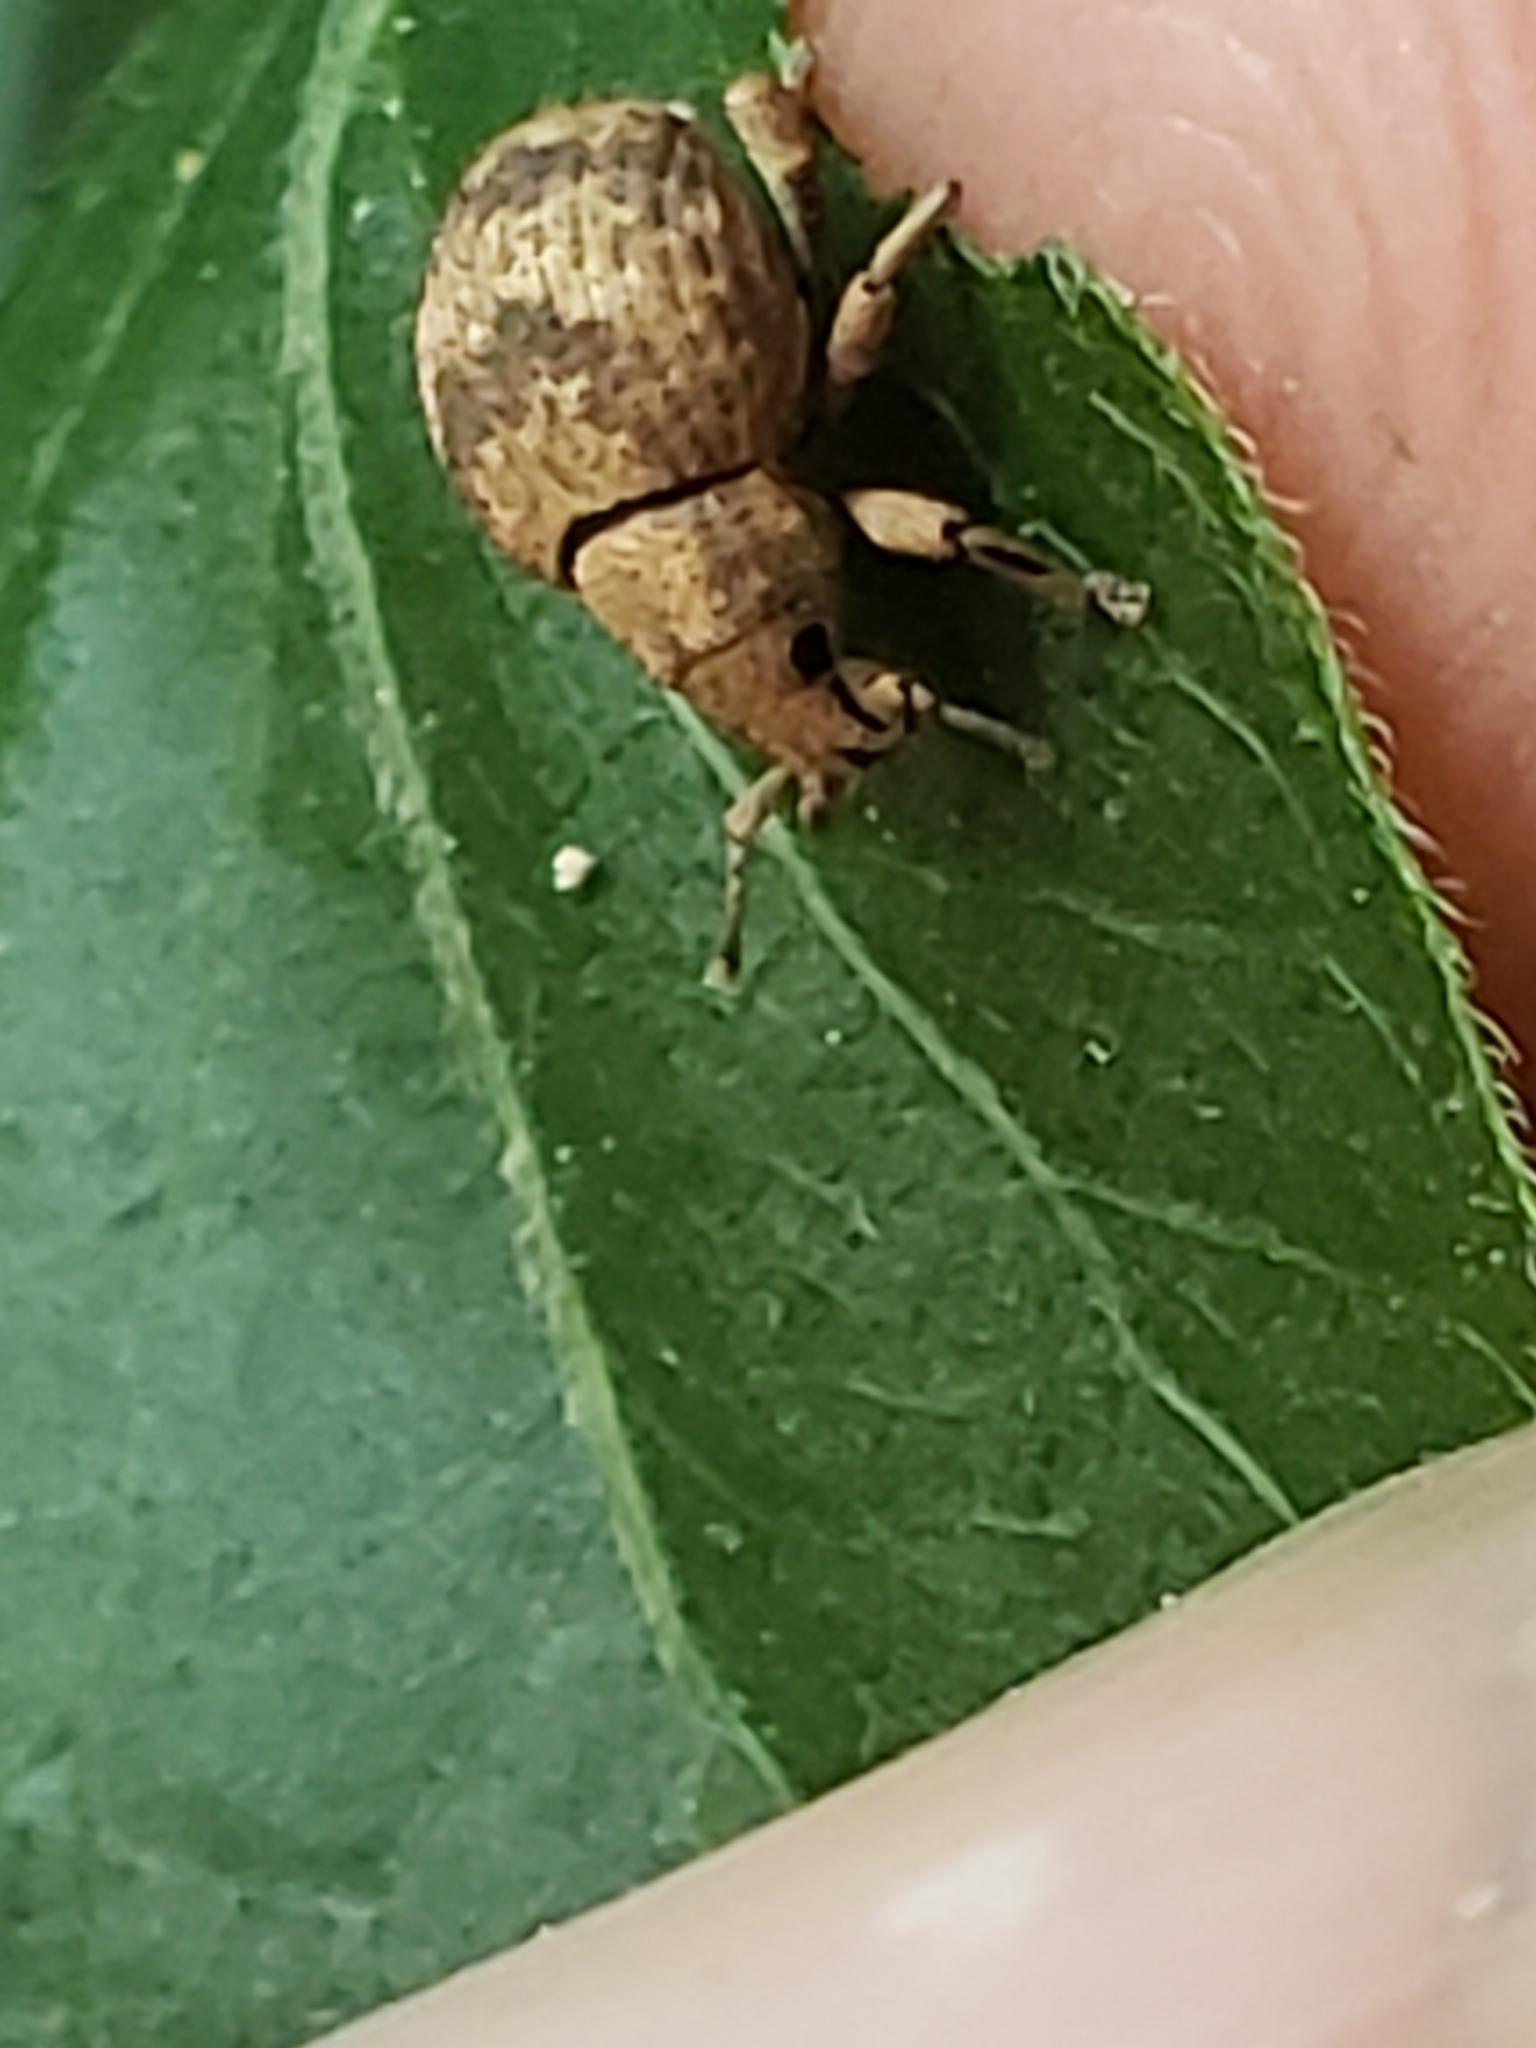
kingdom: Animalia
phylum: Arthropoda
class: Insecta
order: Coleoptera
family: Curculionidae
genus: Pseudocneorhinus
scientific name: Pseudocneorhinus bifasciatus
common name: Two-banded japanese weevil
